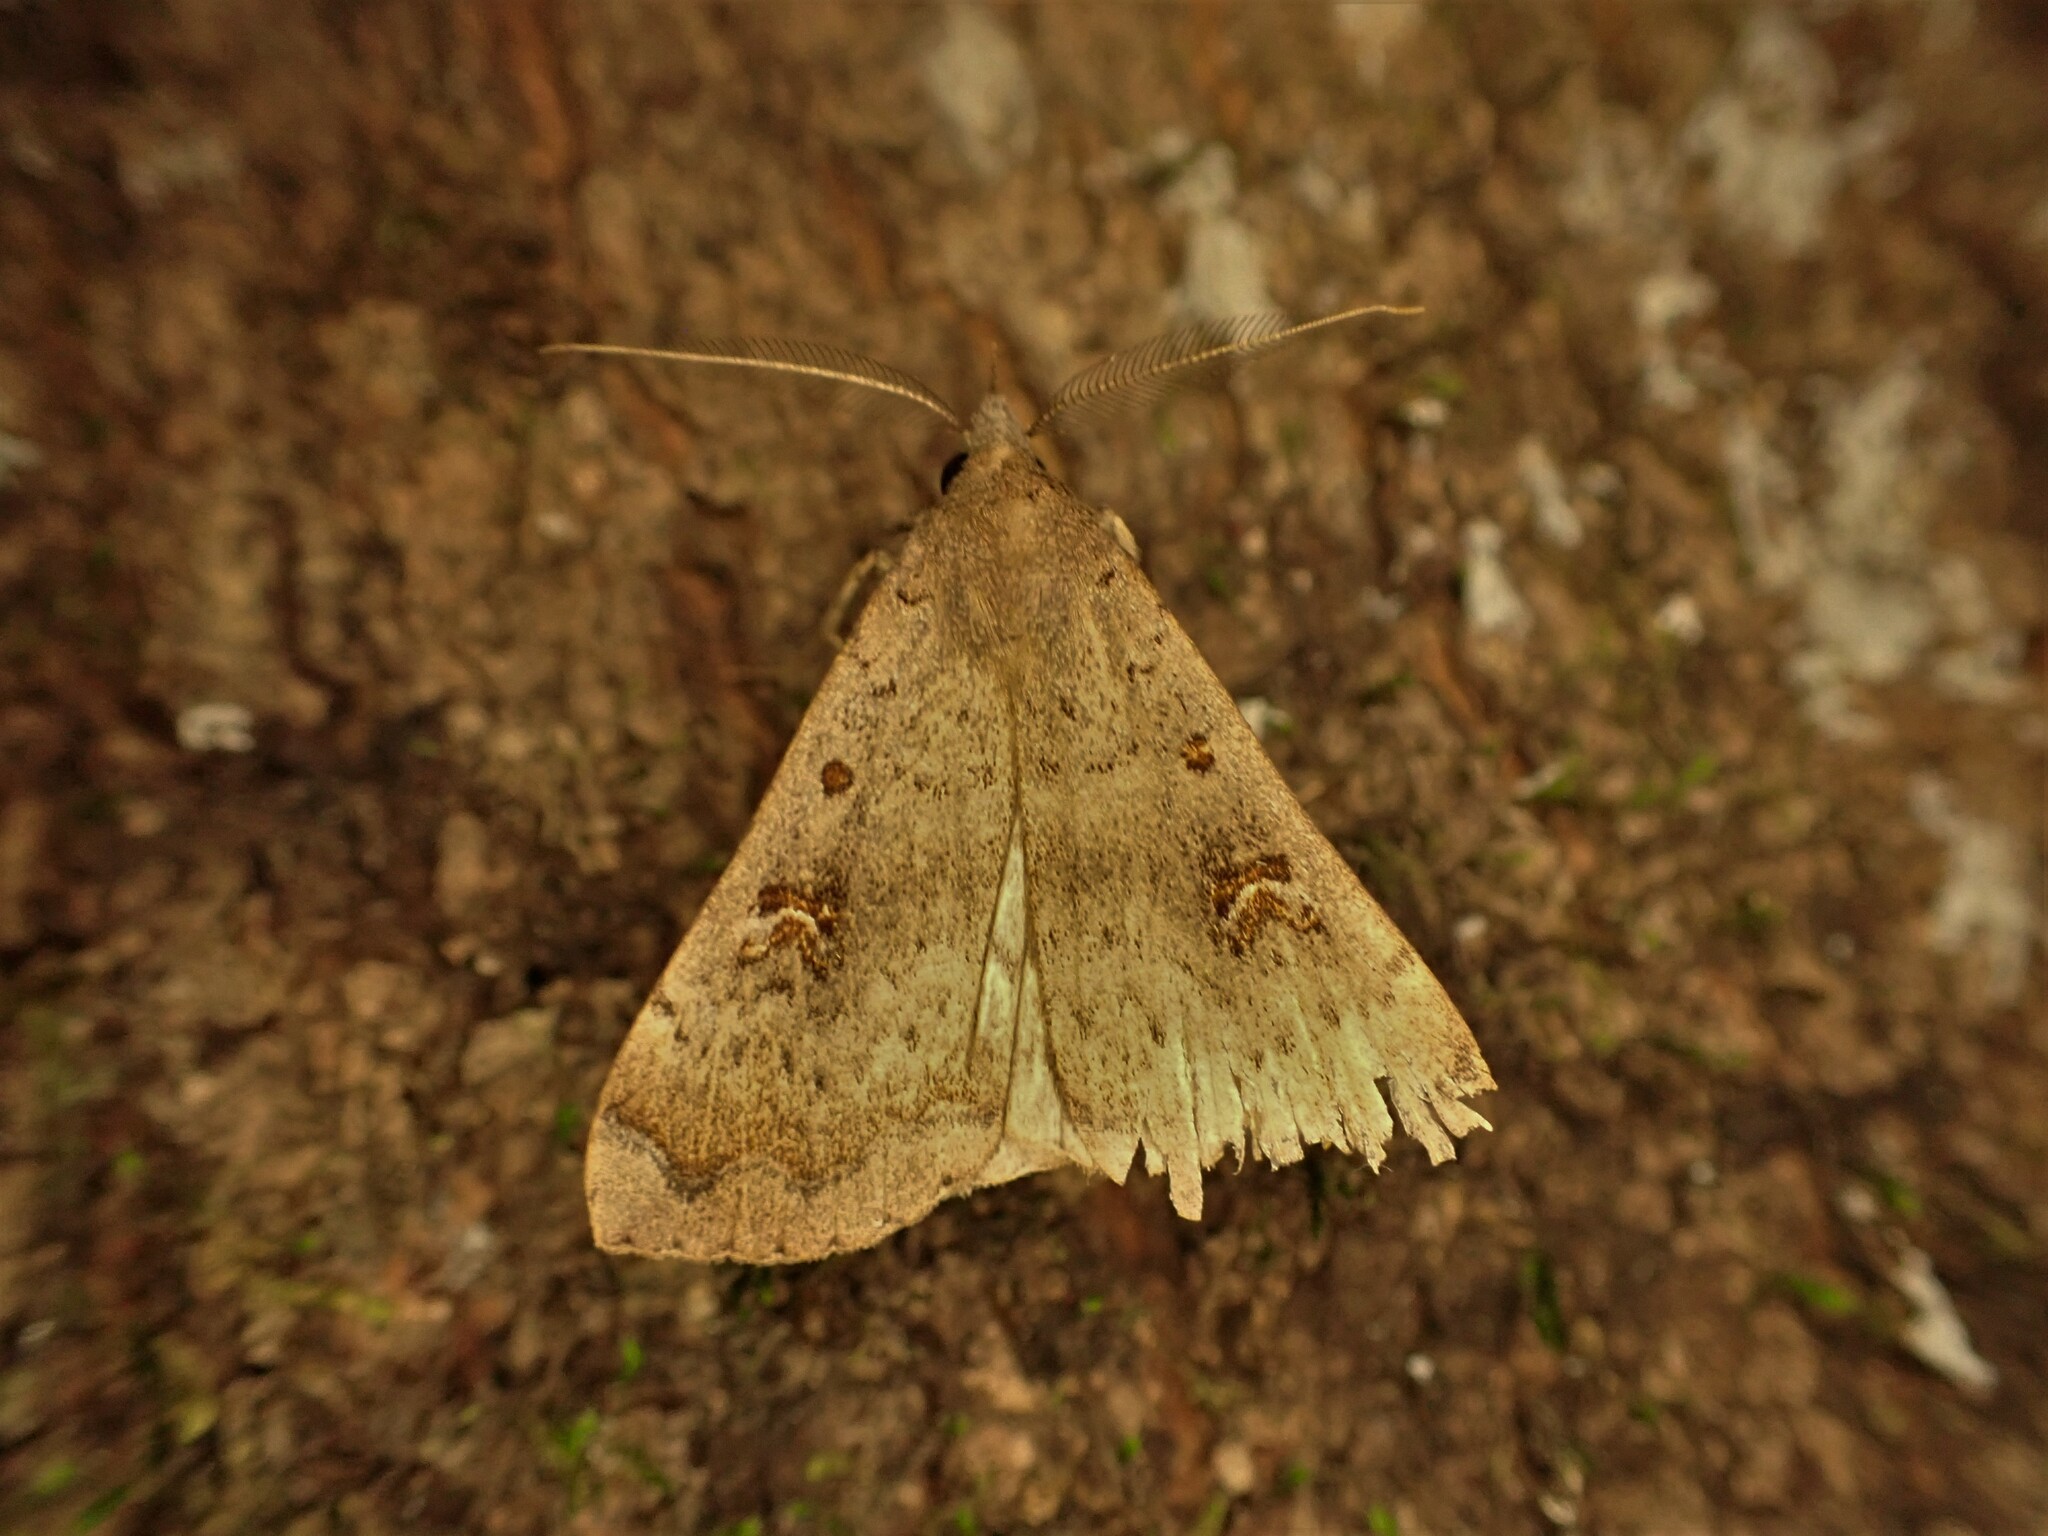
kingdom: Animalia
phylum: Arthropoda
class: Insecta
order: Lepidoptera
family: Erebidae
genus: Rhapsa
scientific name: Rhapsa scotosialis
